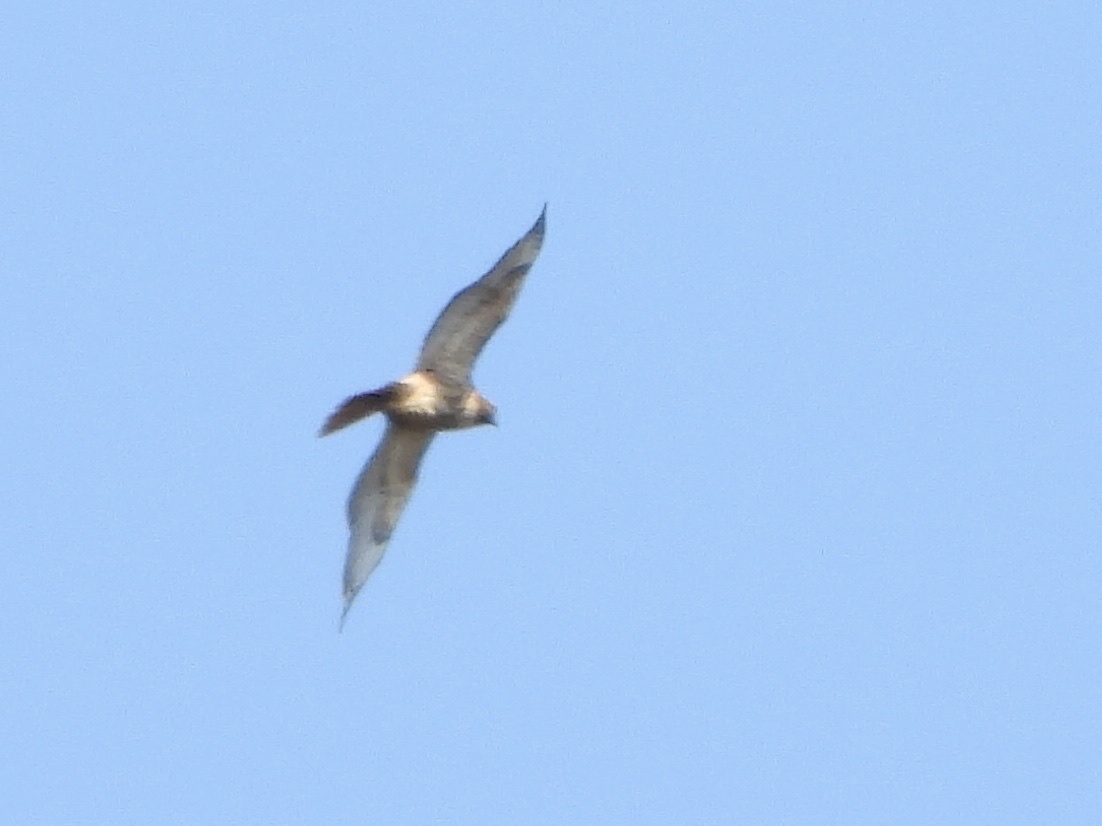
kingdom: Animalia
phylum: Chordata
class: Aves
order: Accipitriformes
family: Accipitridae
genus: Buteo
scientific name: Buteo jamaicensis
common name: Red-tailed hawk
